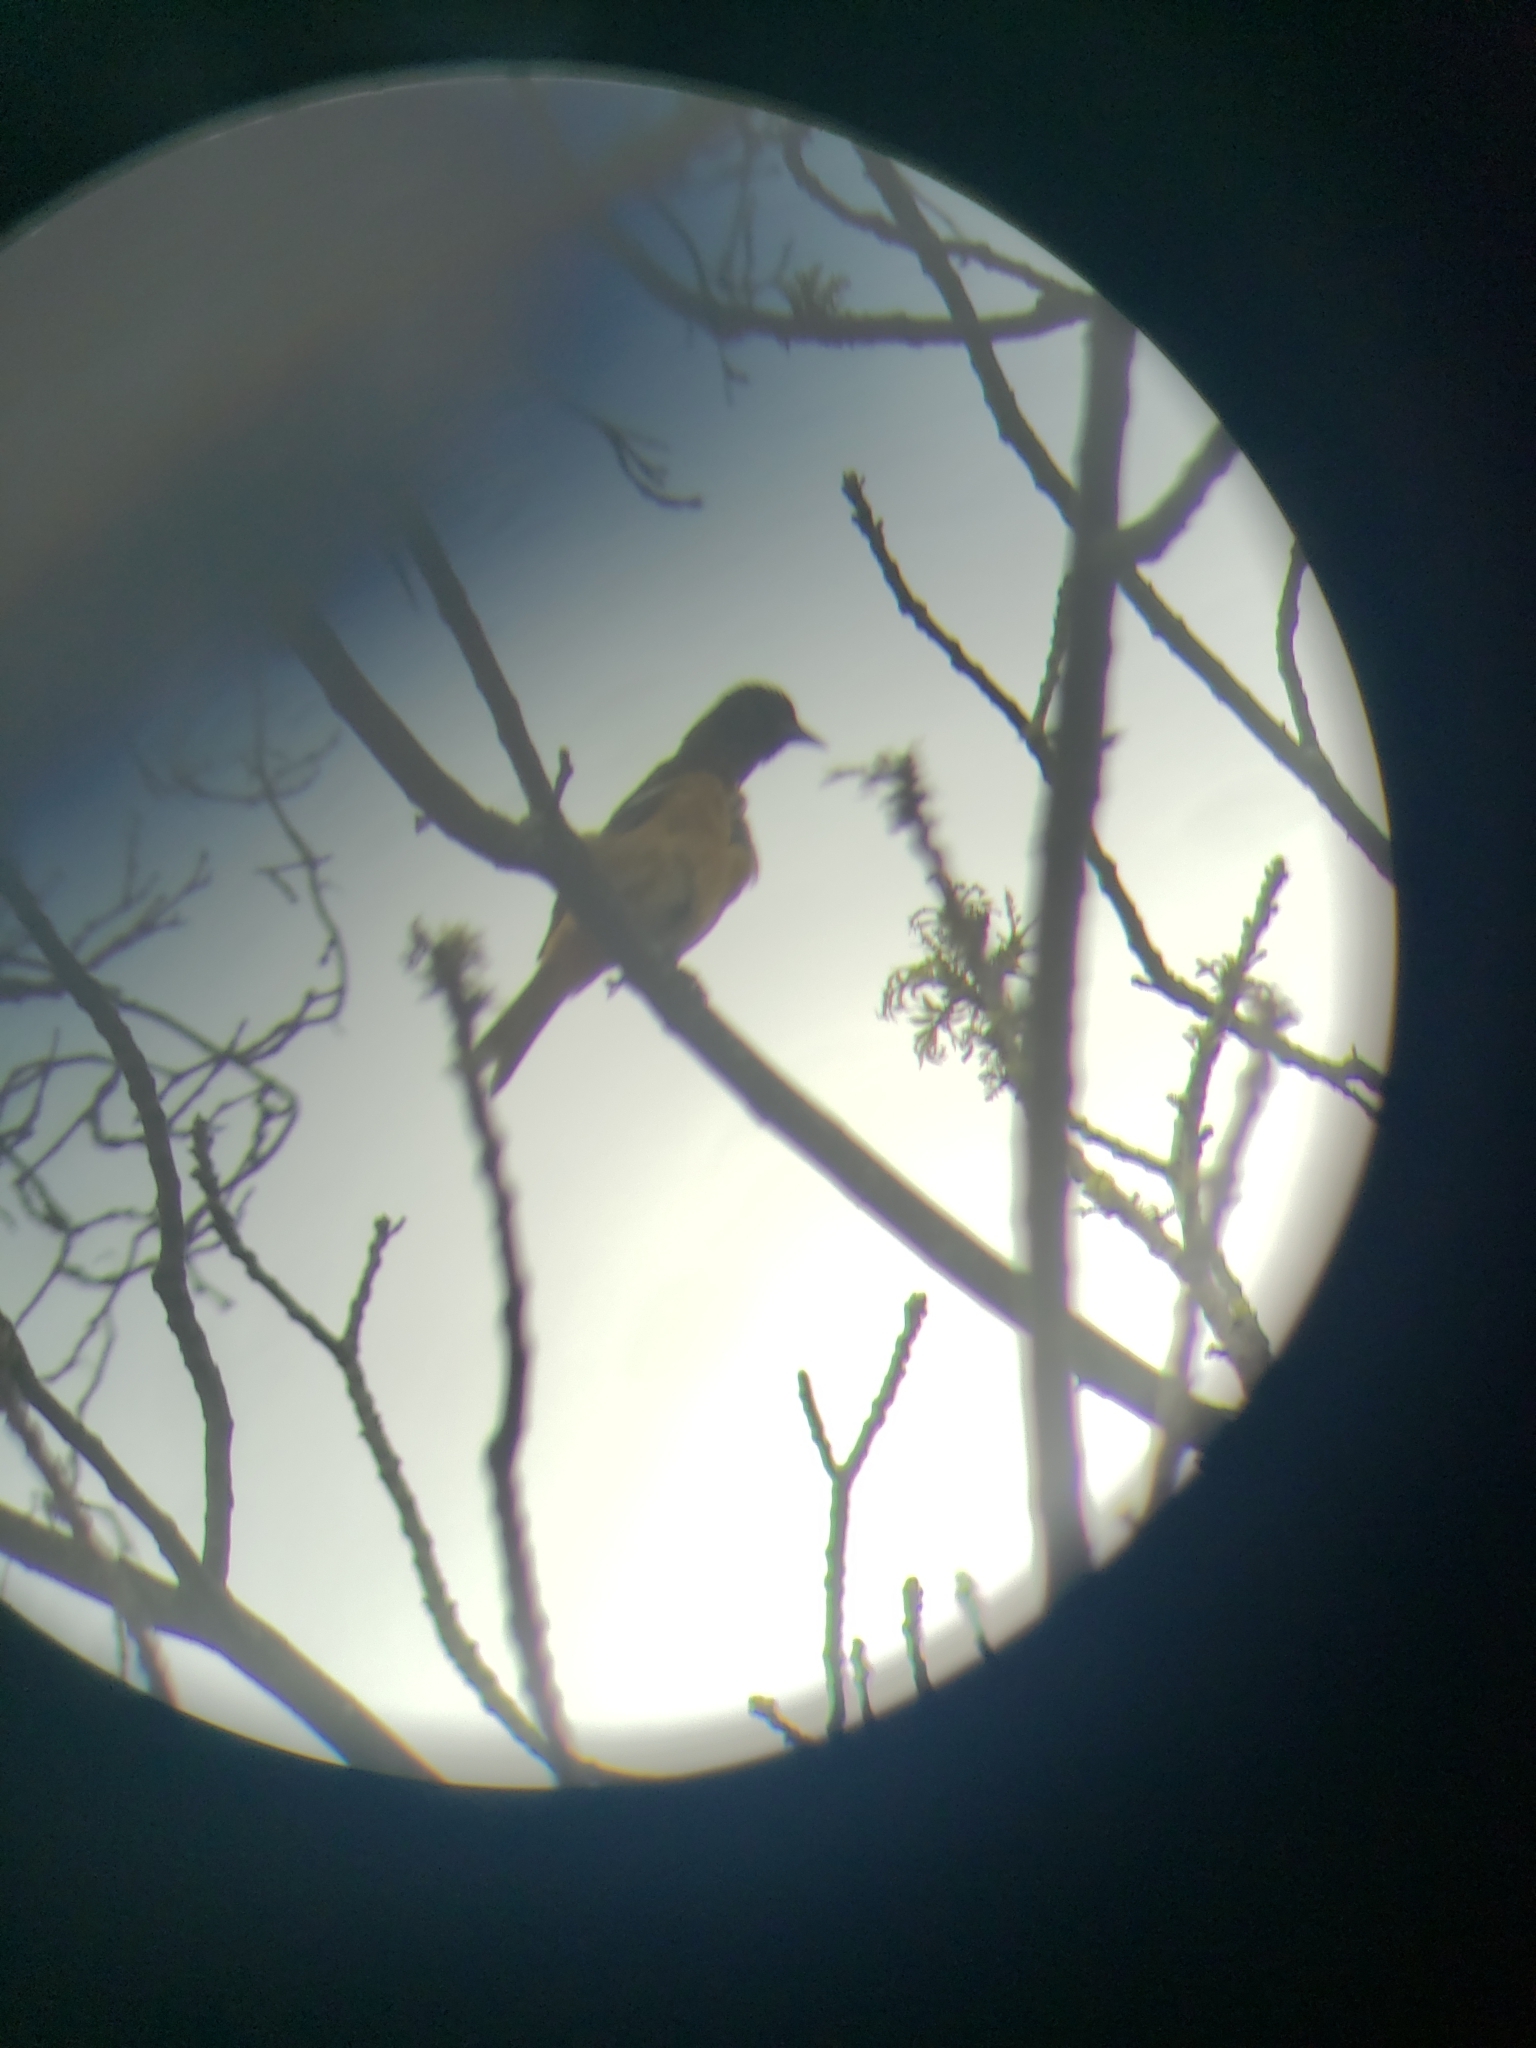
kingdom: Animalia
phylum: Chordata
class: Aves
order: Passeriformes
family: Icteridae
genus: Icterus
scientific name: Icterus galbula
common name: Baltimore oriole
